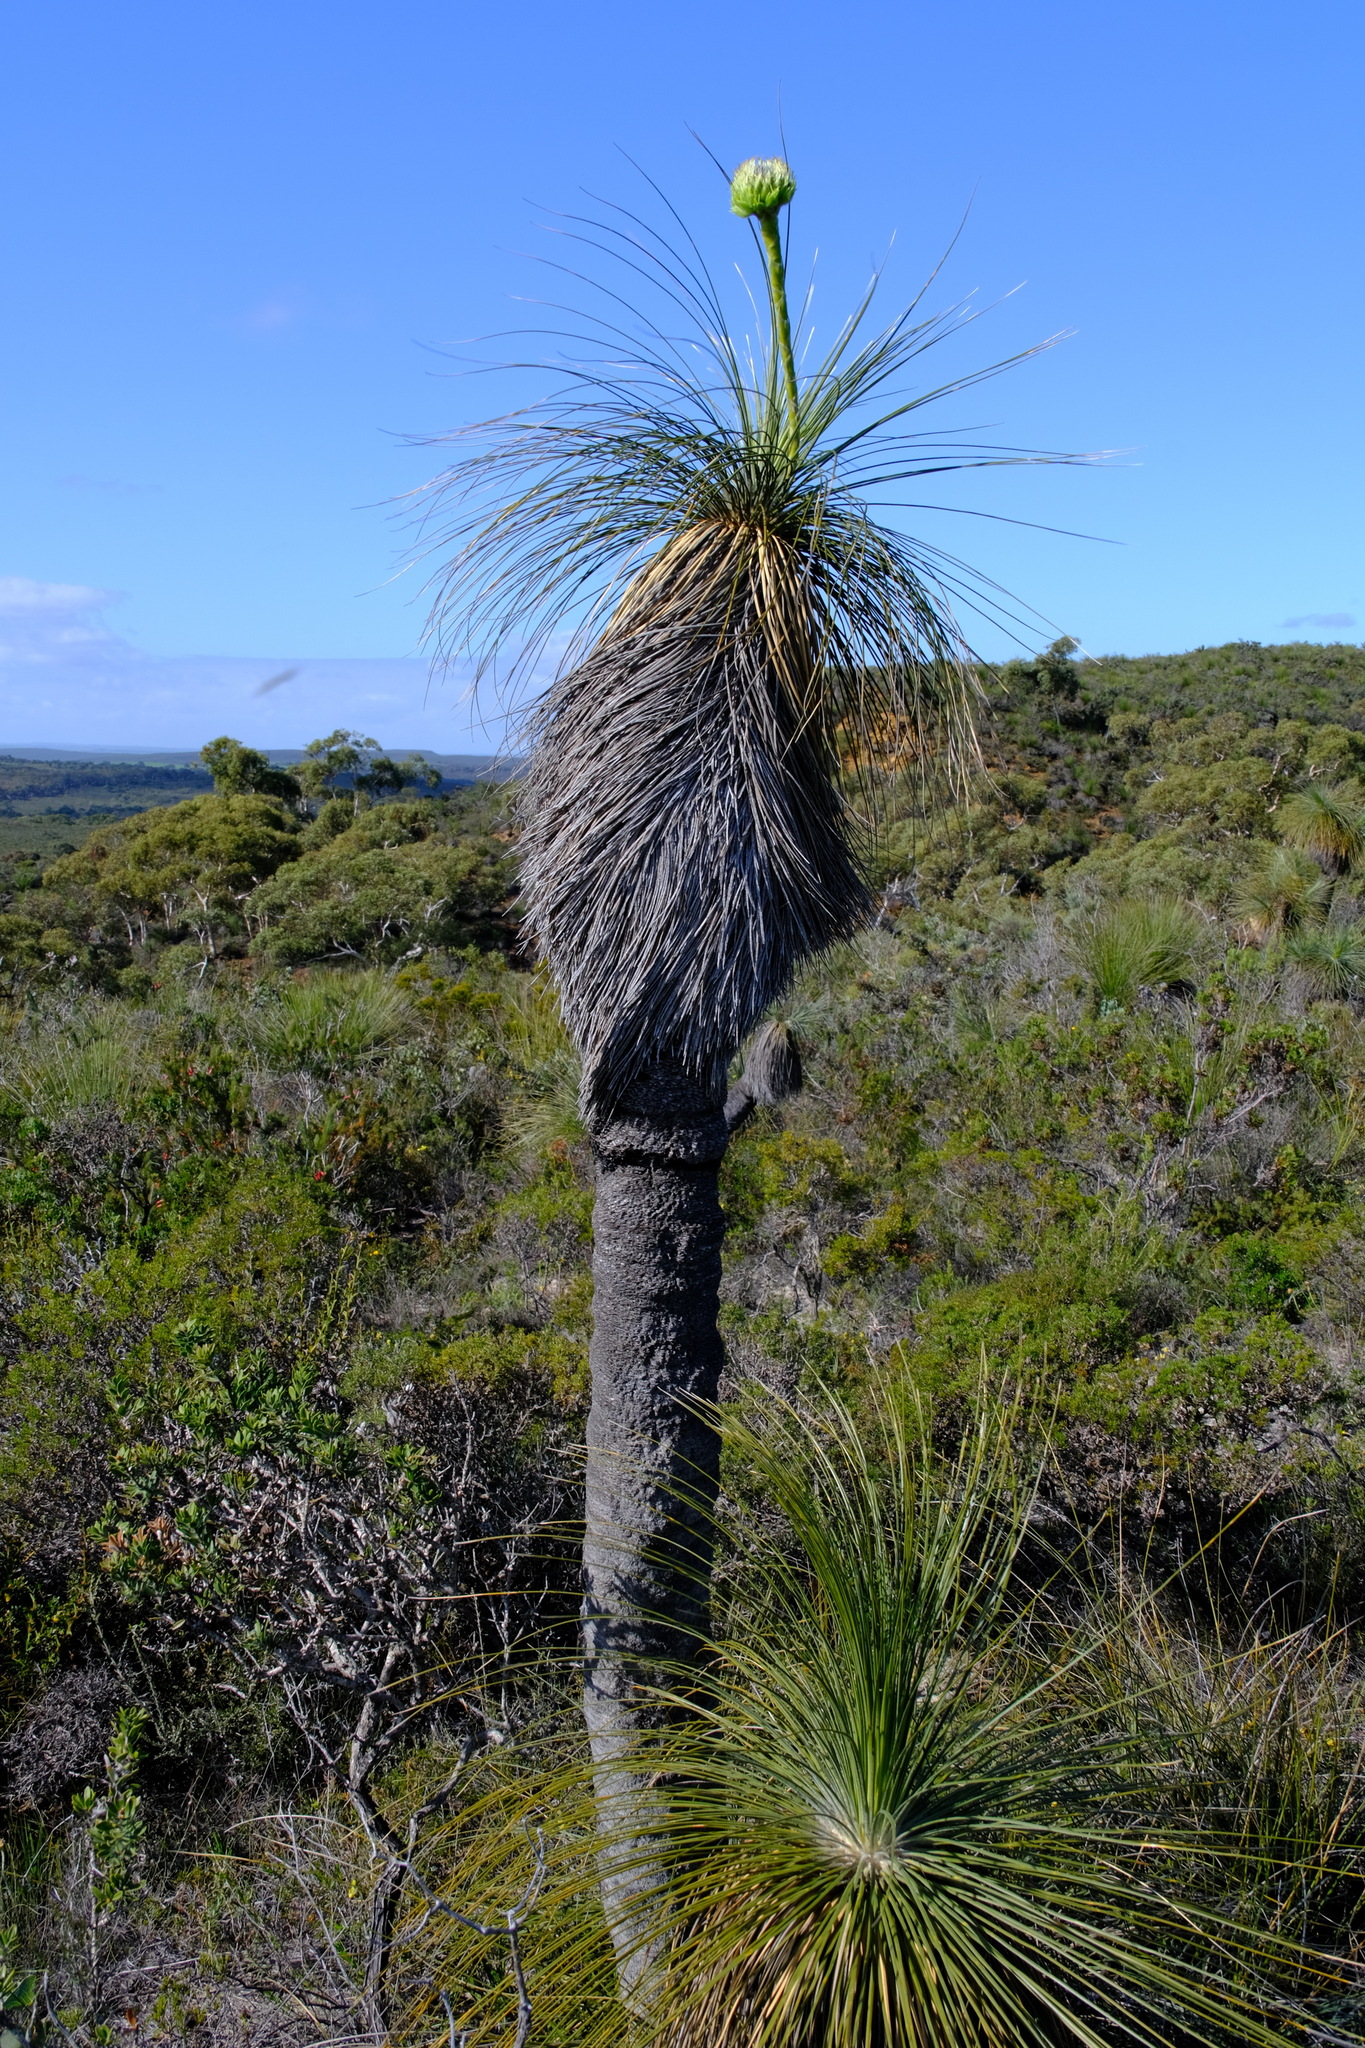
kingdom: Plantae
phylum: Tracheophyta
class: Liliopsida
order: Arecales
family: Dasypogonaceae
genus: Kingia
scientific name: Kingia australis
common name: Black gin
